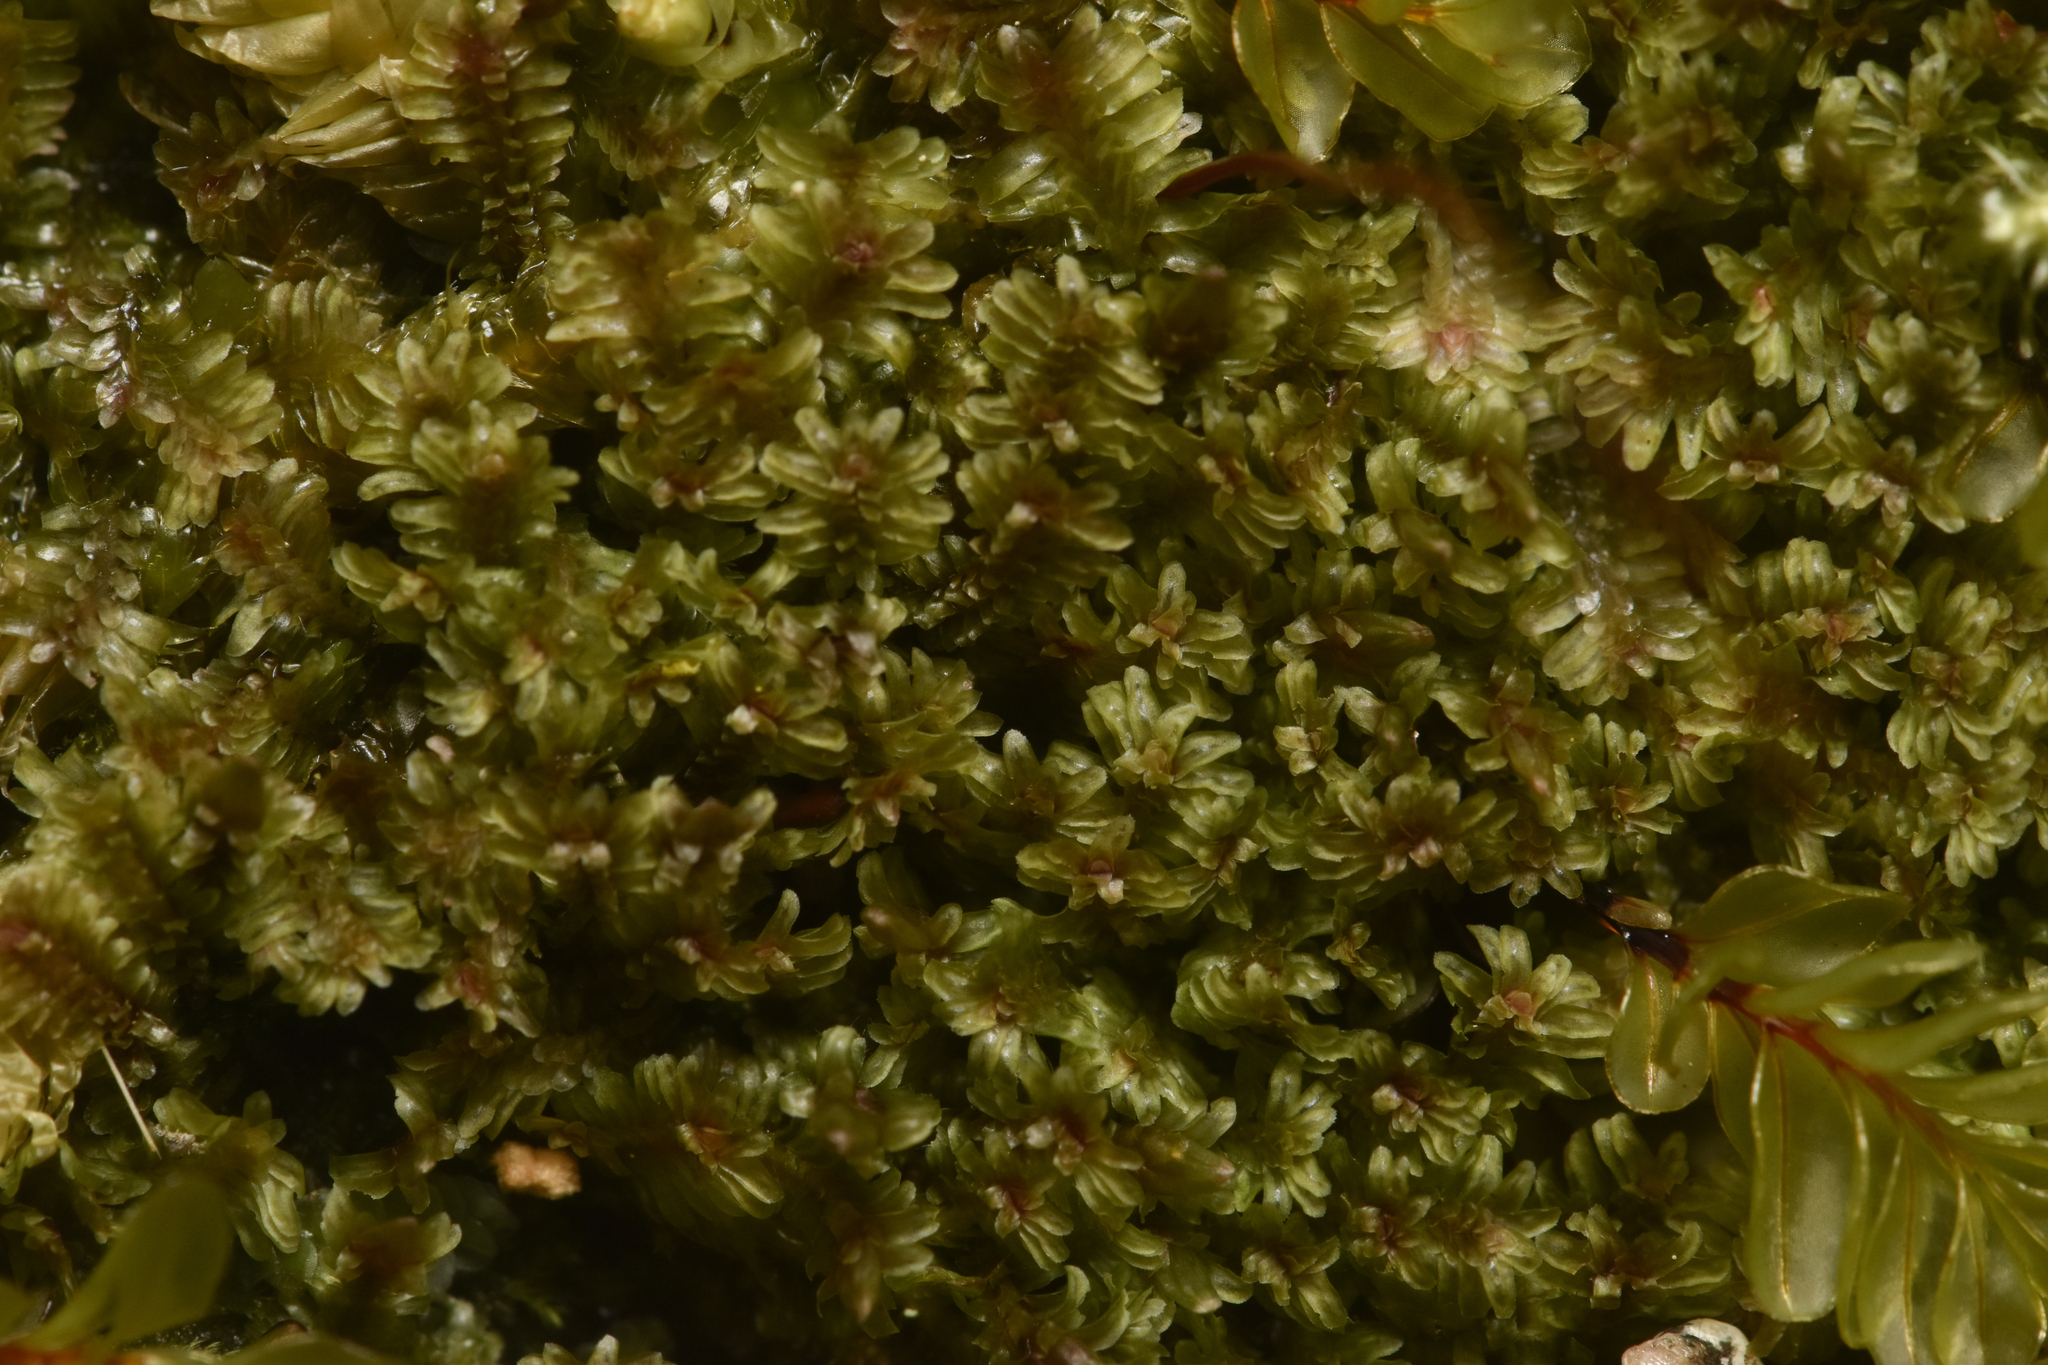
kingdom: Plantae
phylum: Marchantiophyta
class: Jungermanniopsida
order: Jungermanniales
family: Scapaniaceae
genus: Diplophyllum
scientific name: Diplophyllum albicans
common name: White earwort
